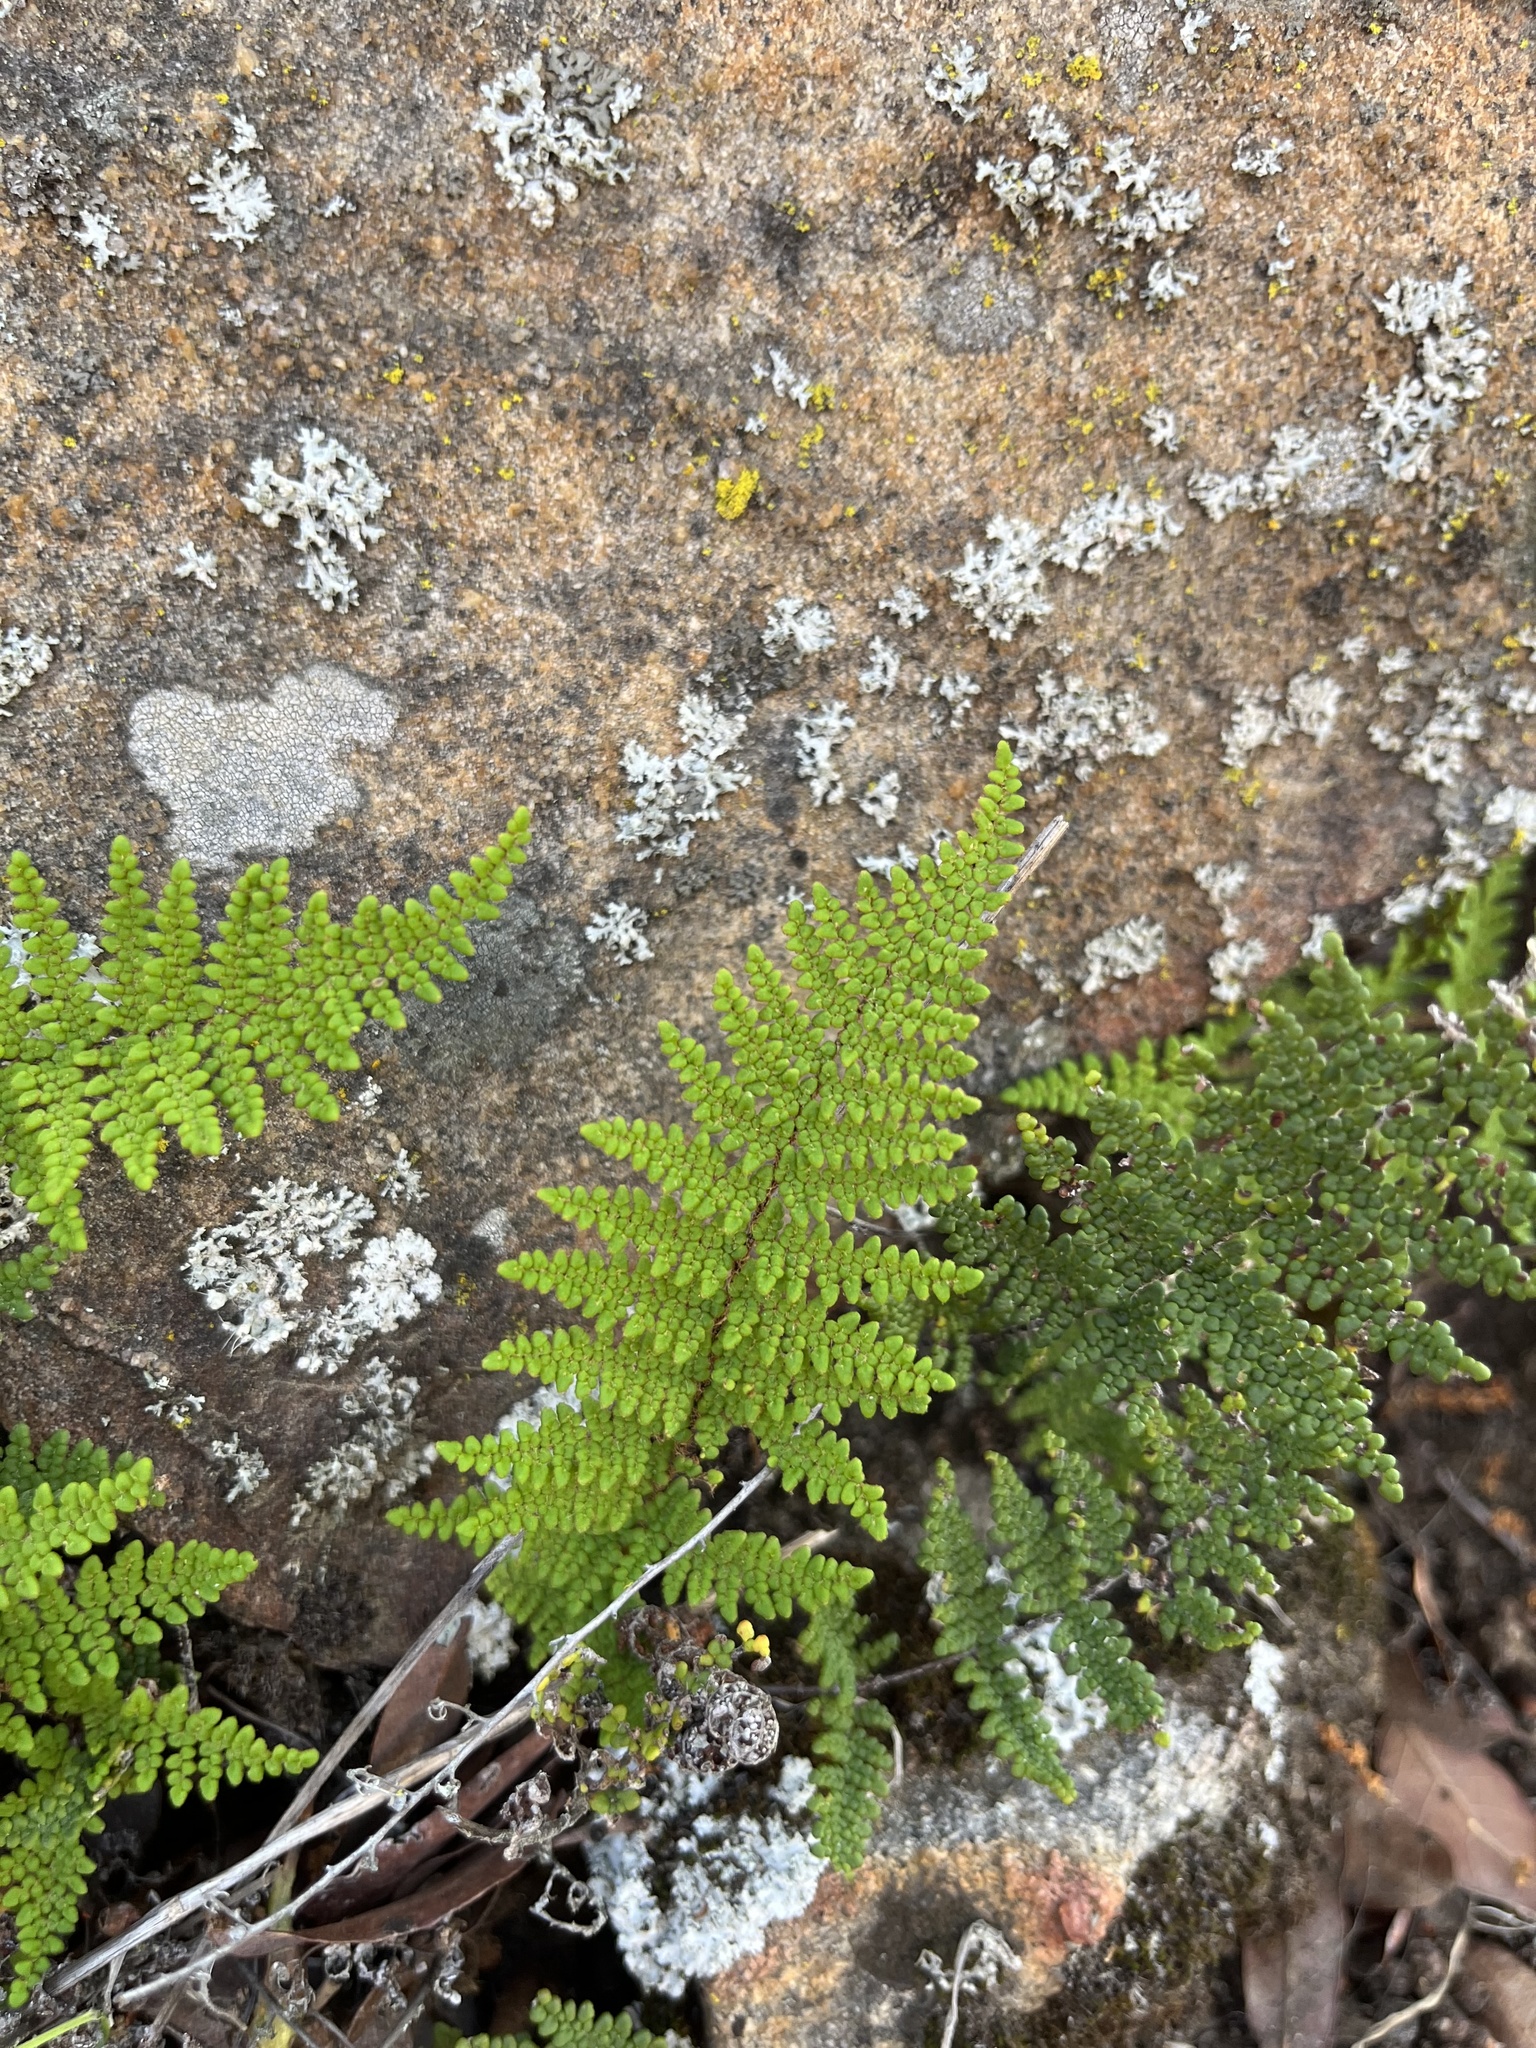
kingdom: Plantae
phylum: Tracheophyta
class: Polypodiopsida
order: Polypodiales
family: Pteridaceae
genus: Myriopteris
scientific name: Myriopteris clevelandii
